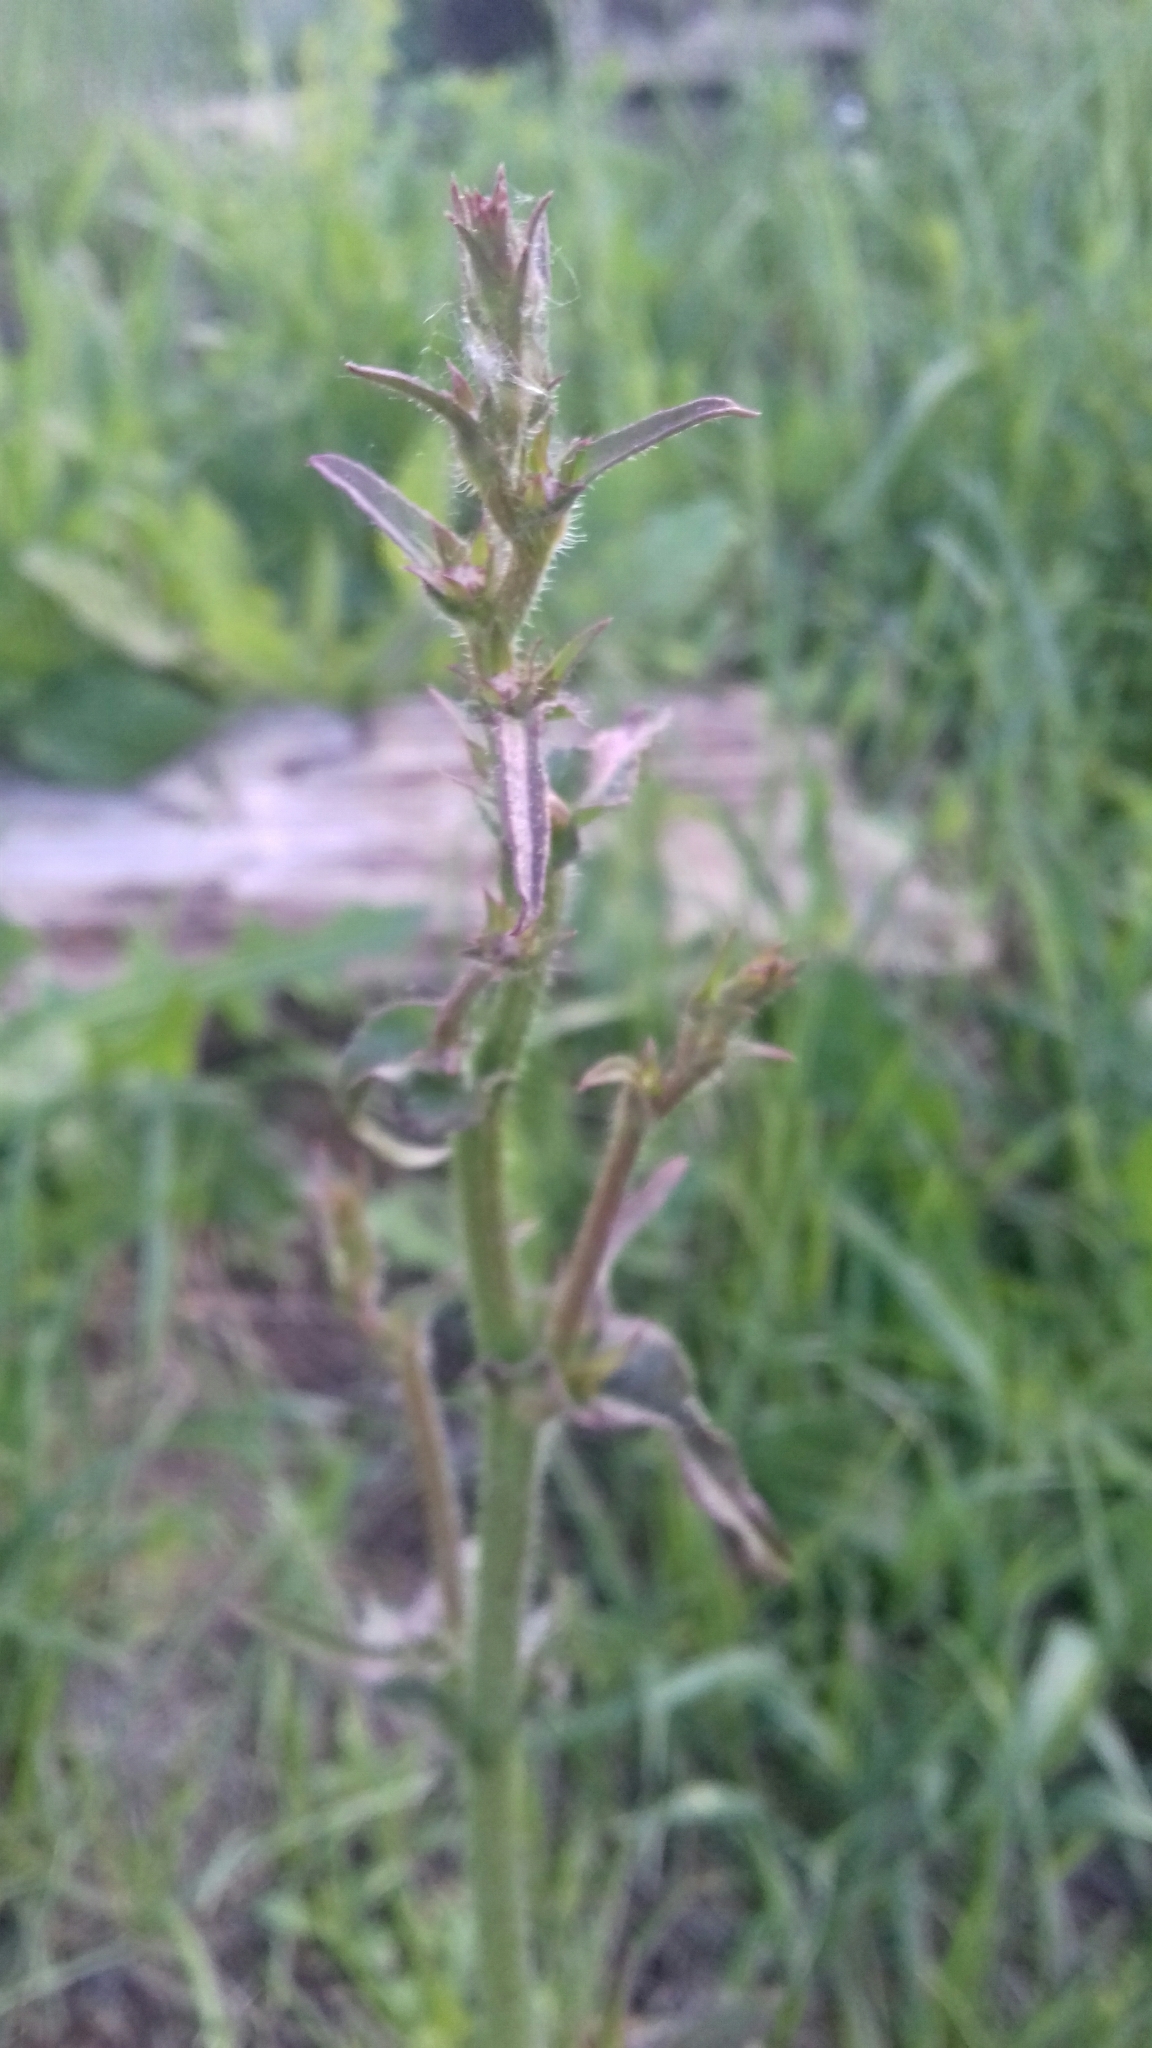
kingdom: Plantae
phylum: Tracheophyta
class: Magnoliopsida
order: Asterales
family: Asteraceae
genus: Cichorium
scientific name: Cichorium intybus
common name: Chicory
